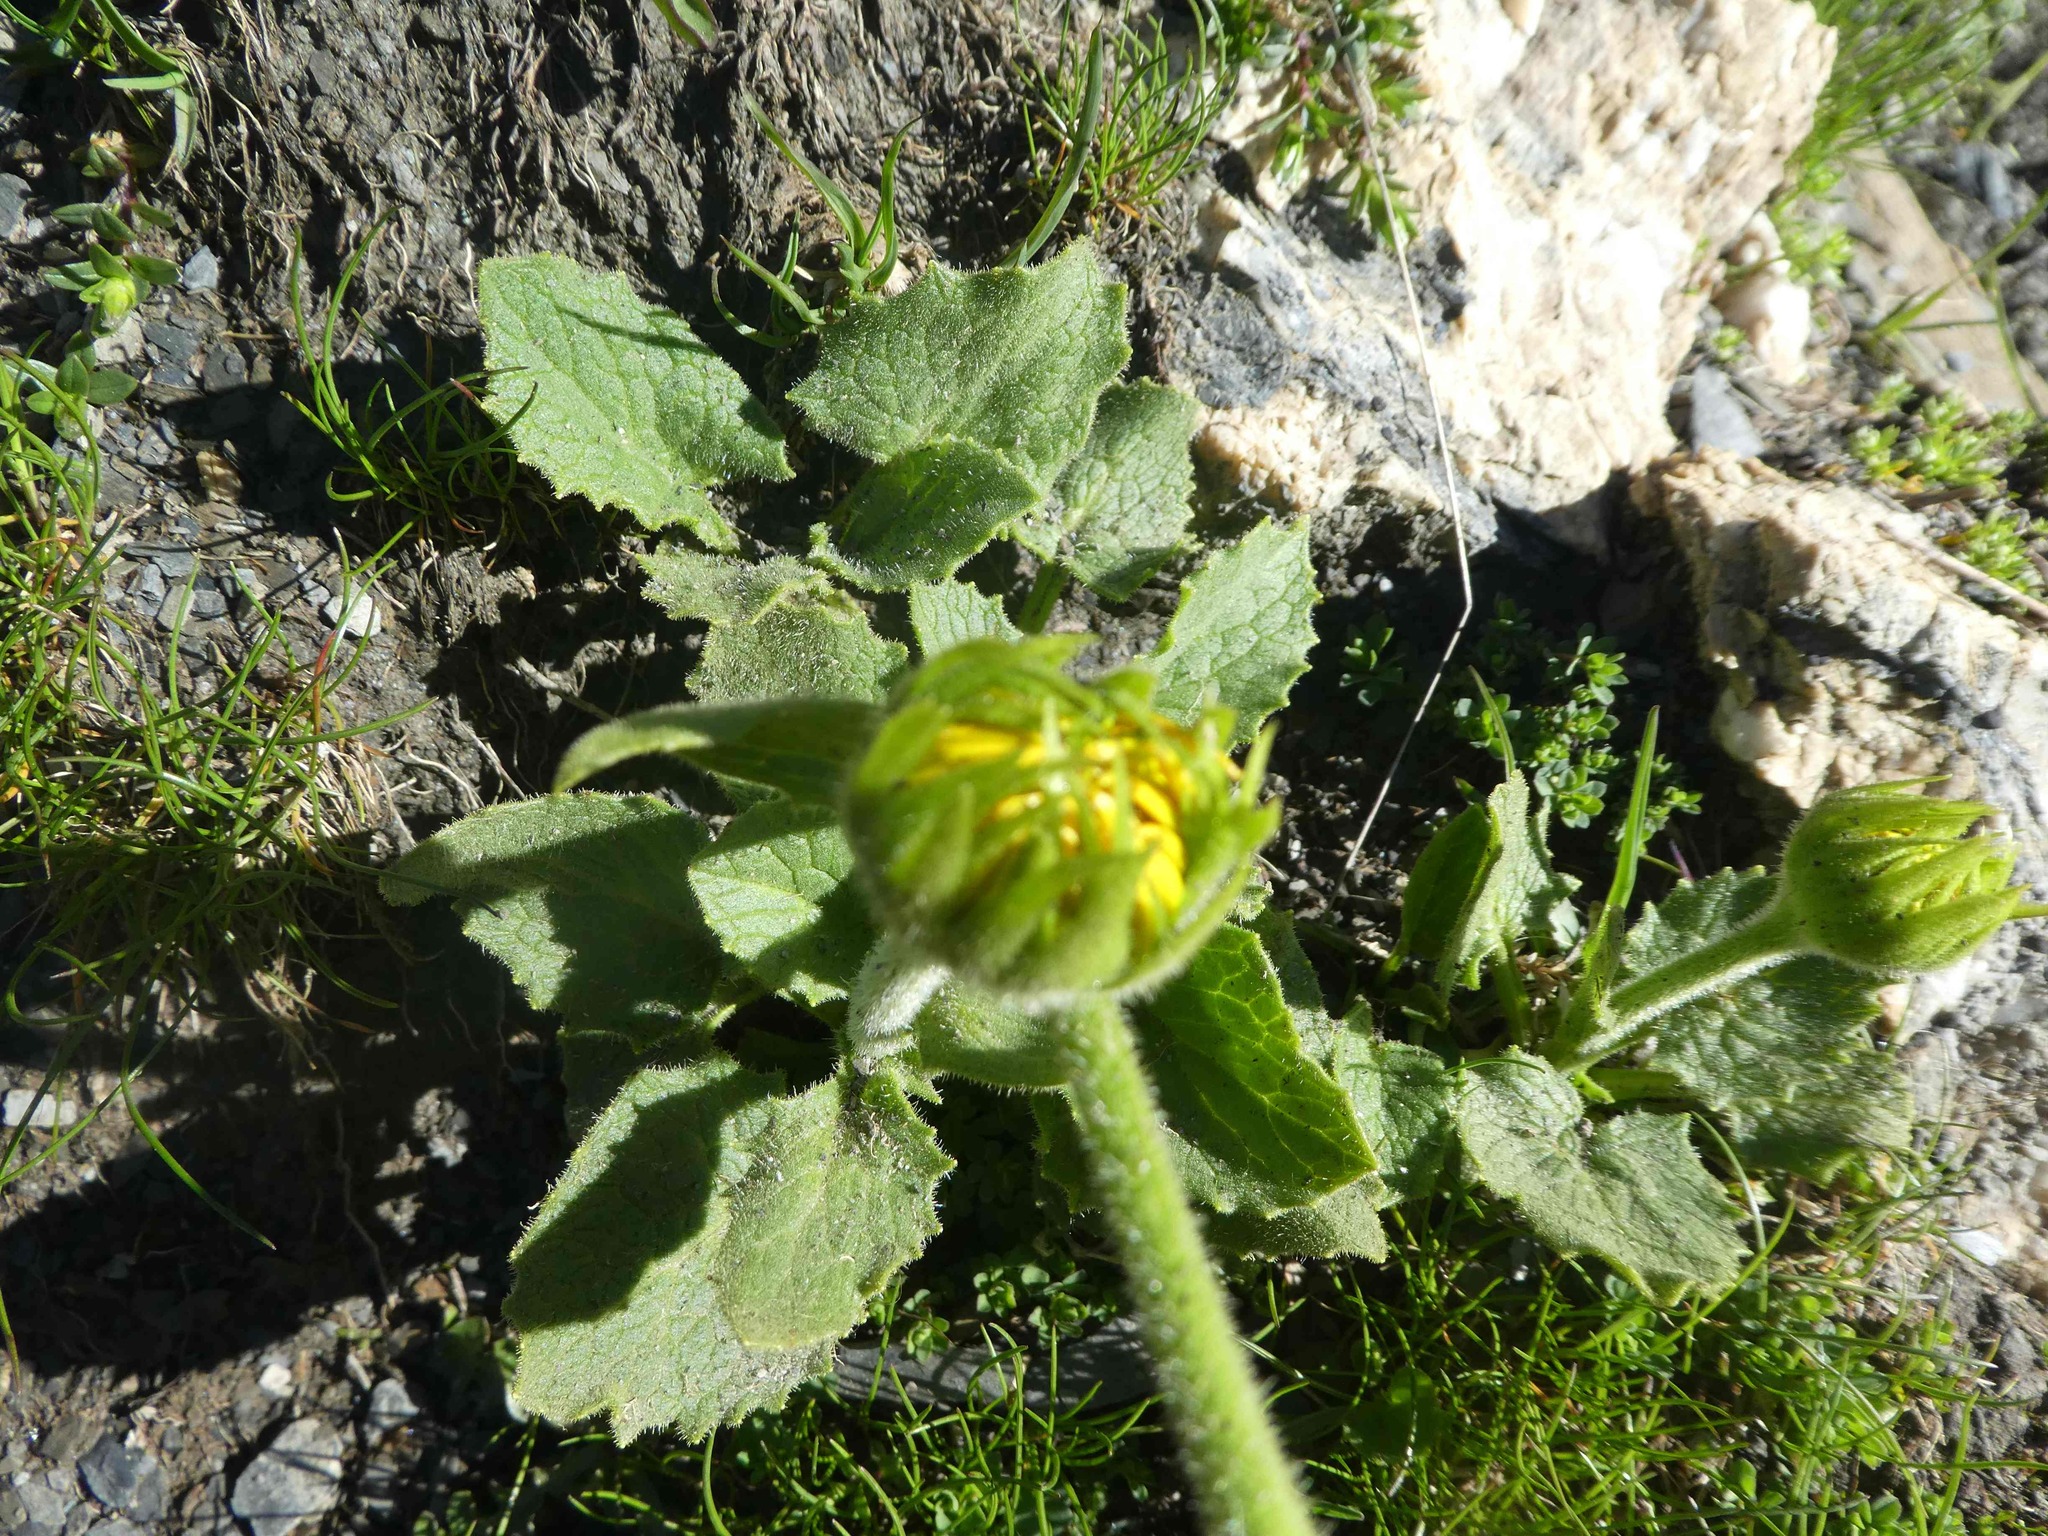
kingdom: Plantae
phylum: Tracheophyta
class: Magnoliopsida
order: Asterales
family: Asteraceae
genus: Doronicum
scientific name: Doronicum grandiflorum
